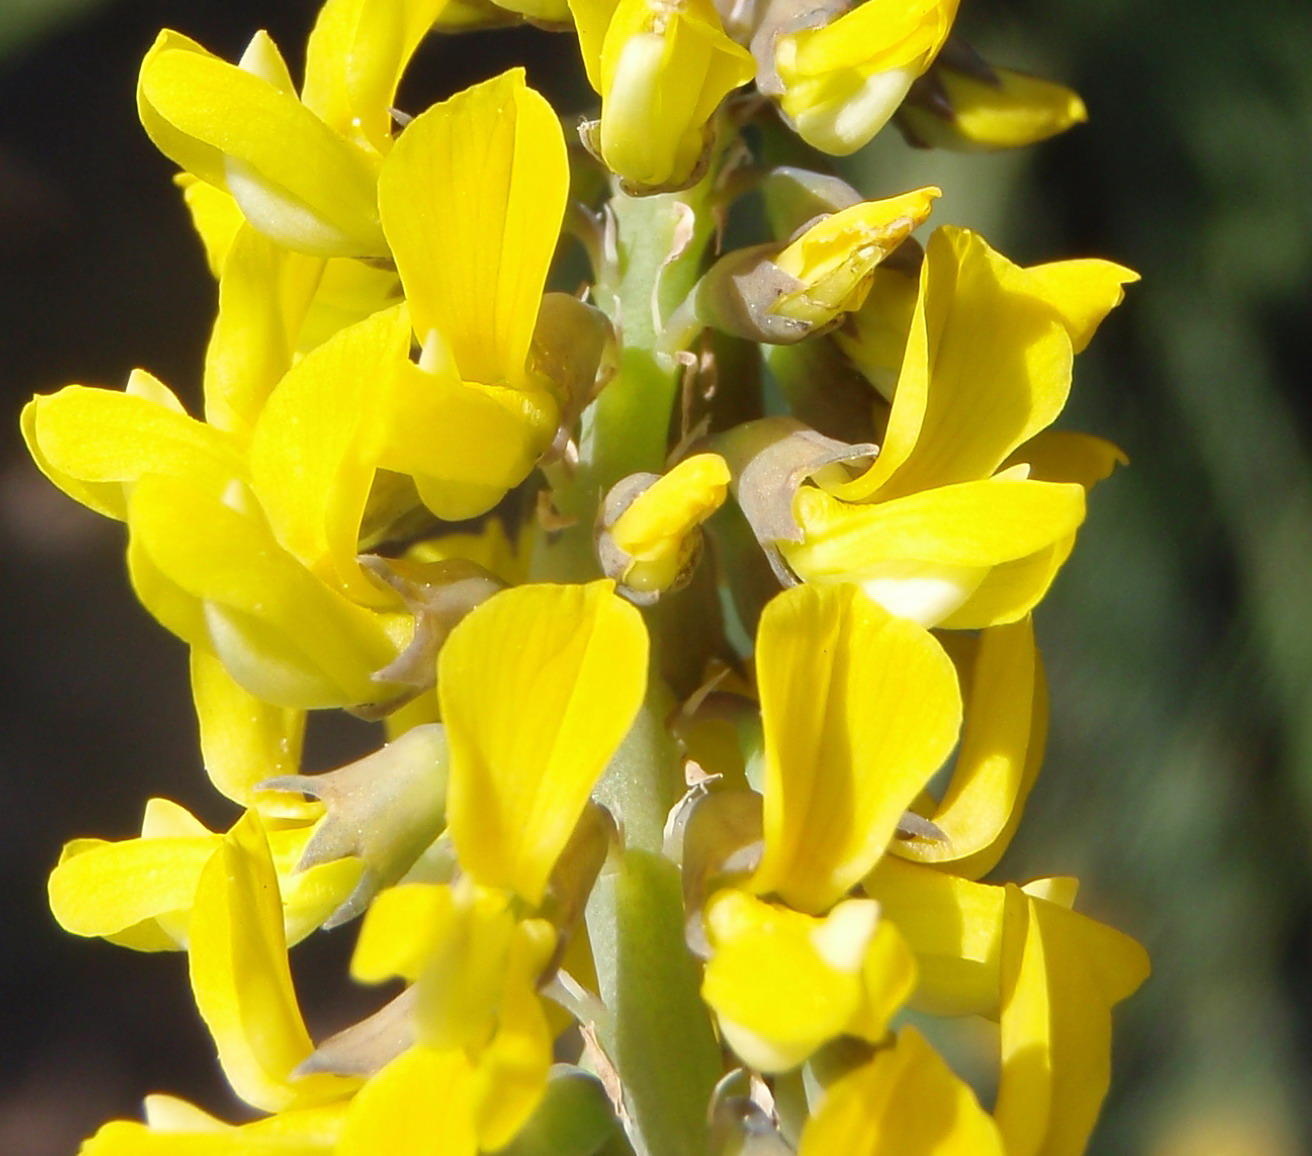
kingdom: Plantae
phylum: Tracheophyta
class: Magnoliopsida
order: Fabales
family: Fabaceae
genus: Lebeckia
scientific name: Lebeckia gracilis
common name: Slender ganna
